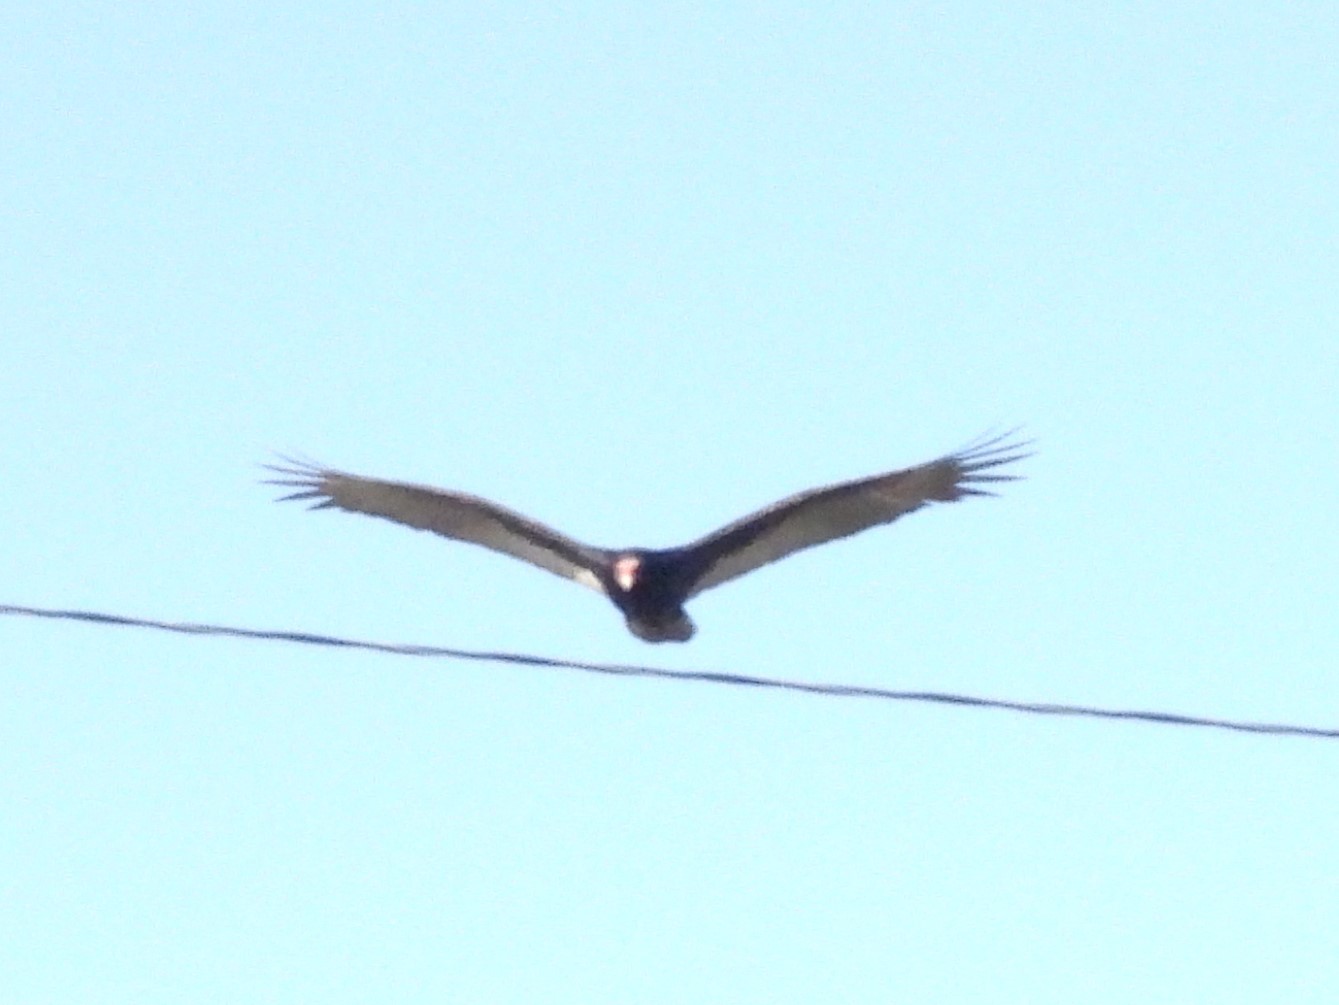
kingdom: Animalia
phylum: Chordata
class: Aves
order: Accipitriformes
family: Cathartidae
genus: Cathartes
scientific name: Cathartes aura
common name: Turkey vulture
